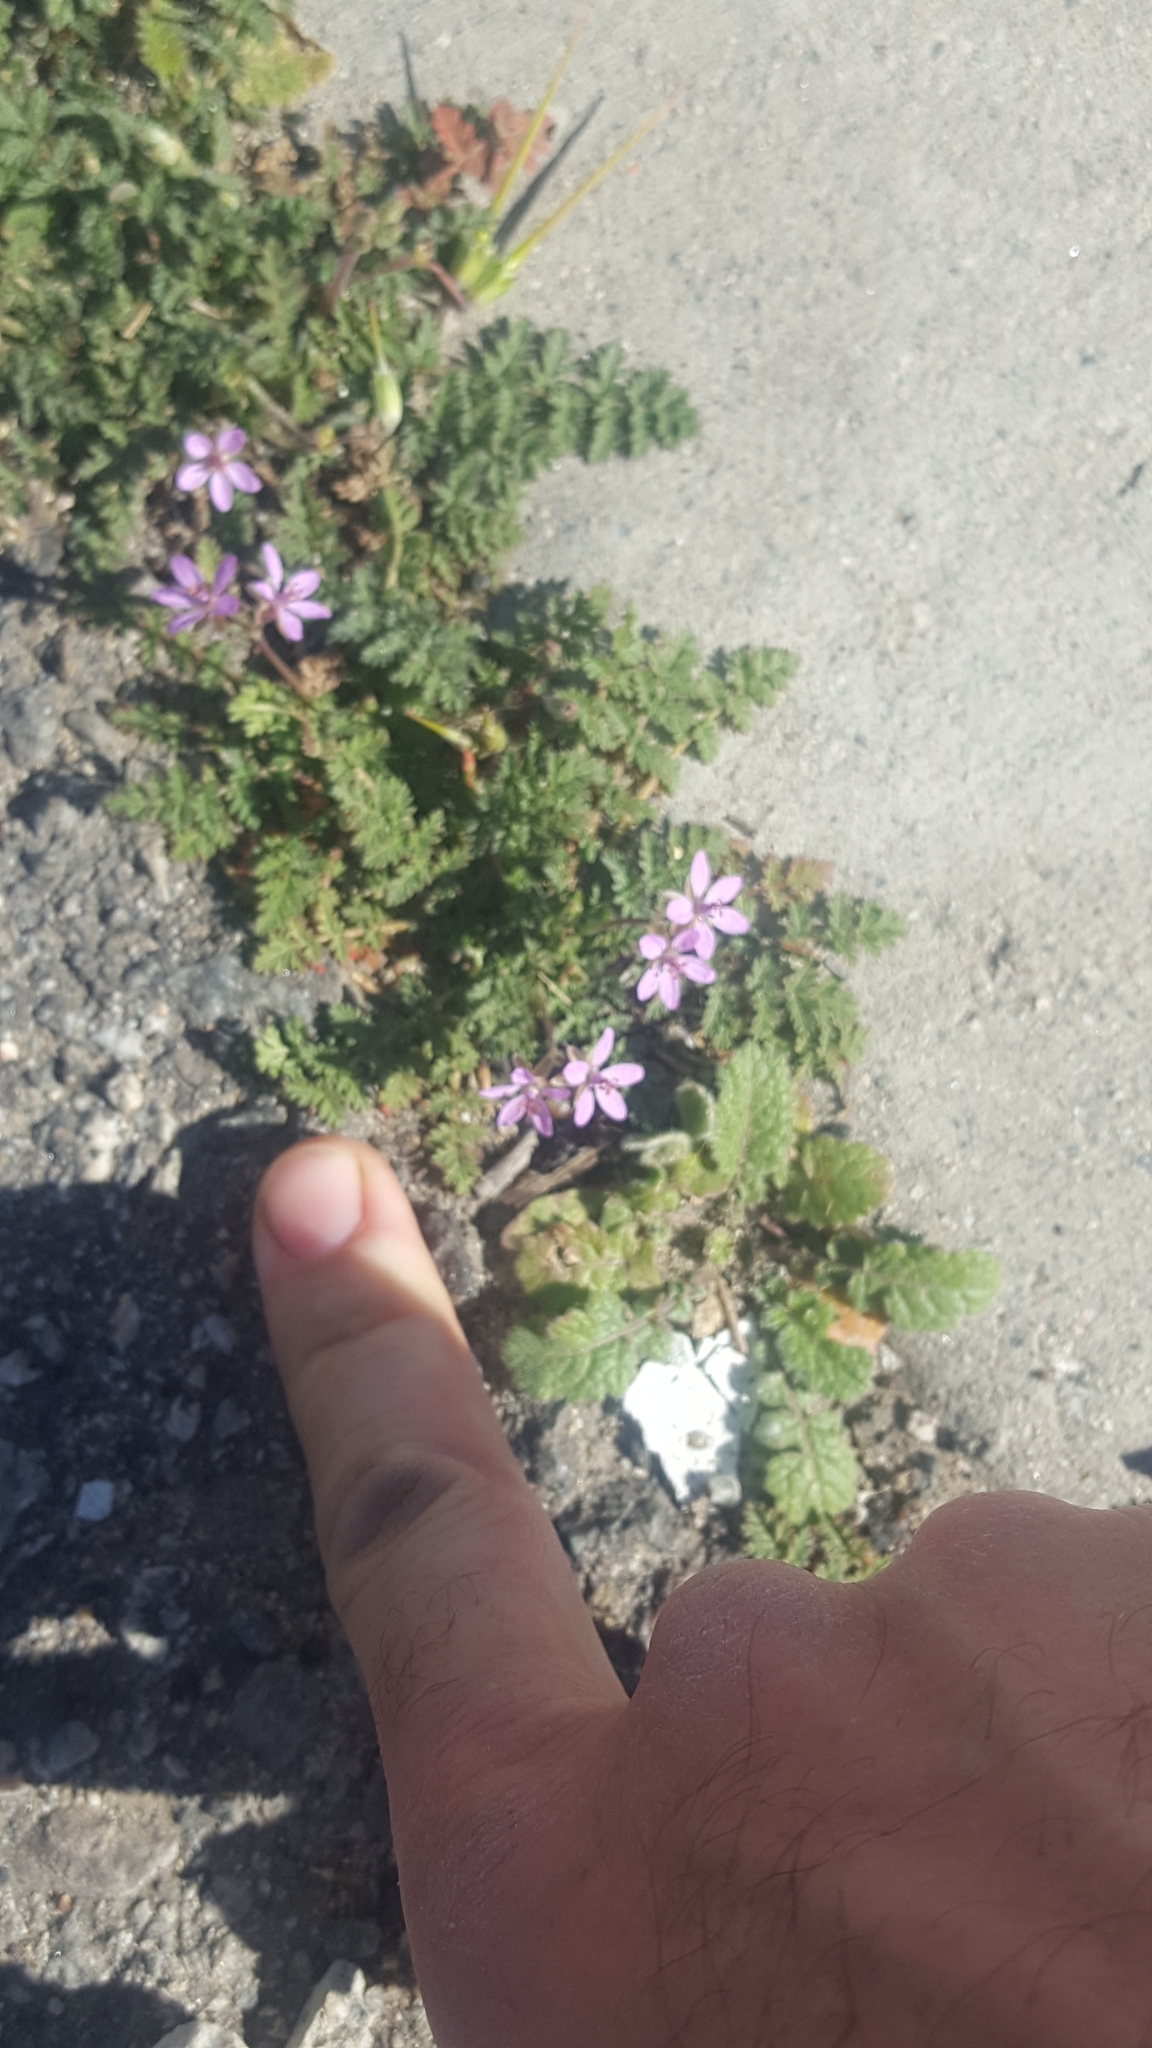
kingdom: Plantae
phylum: Tracheophyta
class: Magnoliopsida
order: Geraniales
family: Geraniaceae
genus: Erodium
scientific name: Erodium cicutarium
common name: Common stork's-bill
